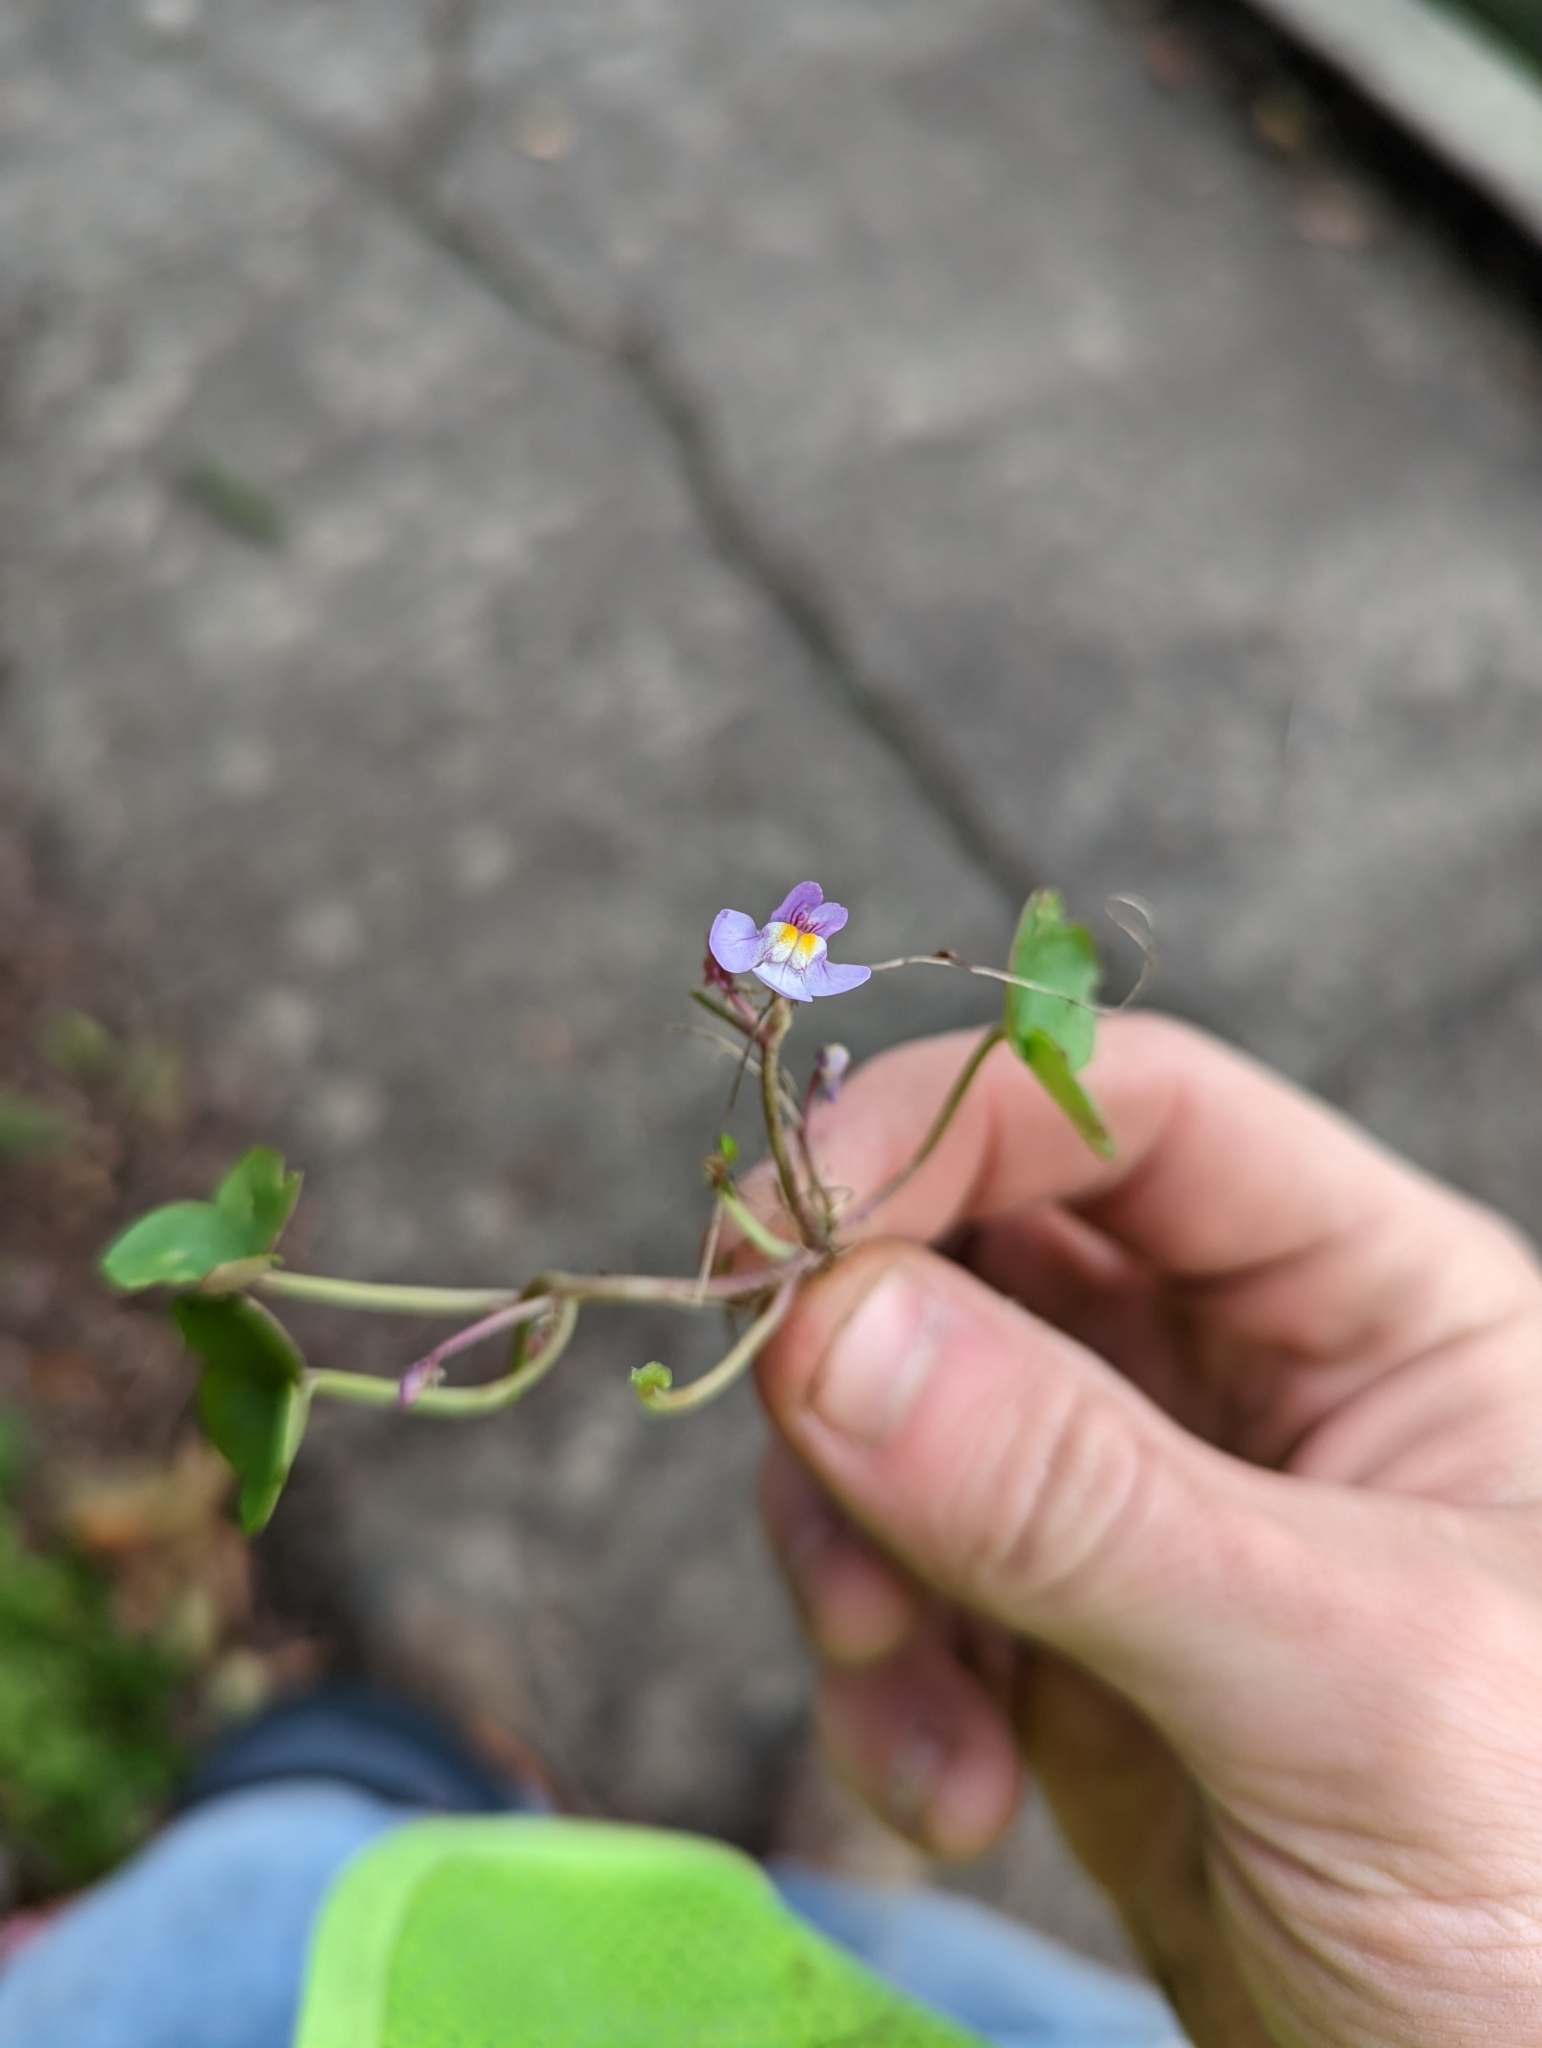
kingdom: Plantae
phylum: Tracheophyta
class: Magnoliopsida
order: Lamiales
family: Plantaginaceae
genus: Cymbalaria
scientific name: Cymbalaria muralis
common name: Ivy-leaved toadflax
